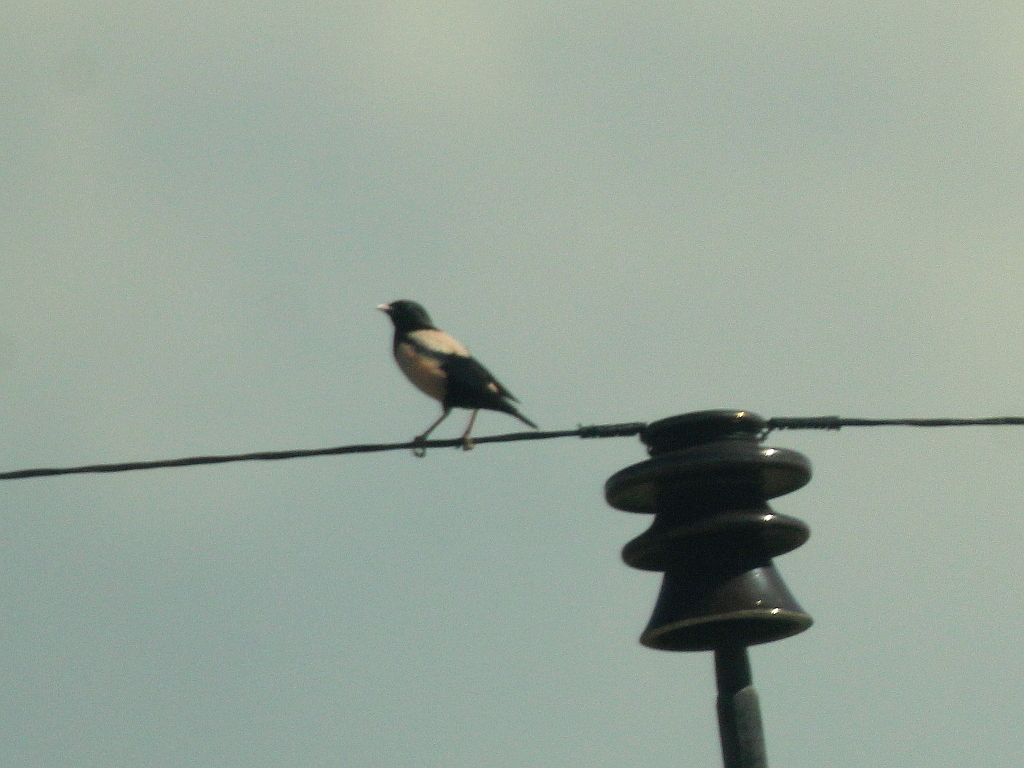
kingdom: Animalia
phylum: Chordata
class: Aves
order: Passeriformes
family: Sturnidae
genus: Pastor
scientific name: Pastor roseus
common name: Rosy starling
